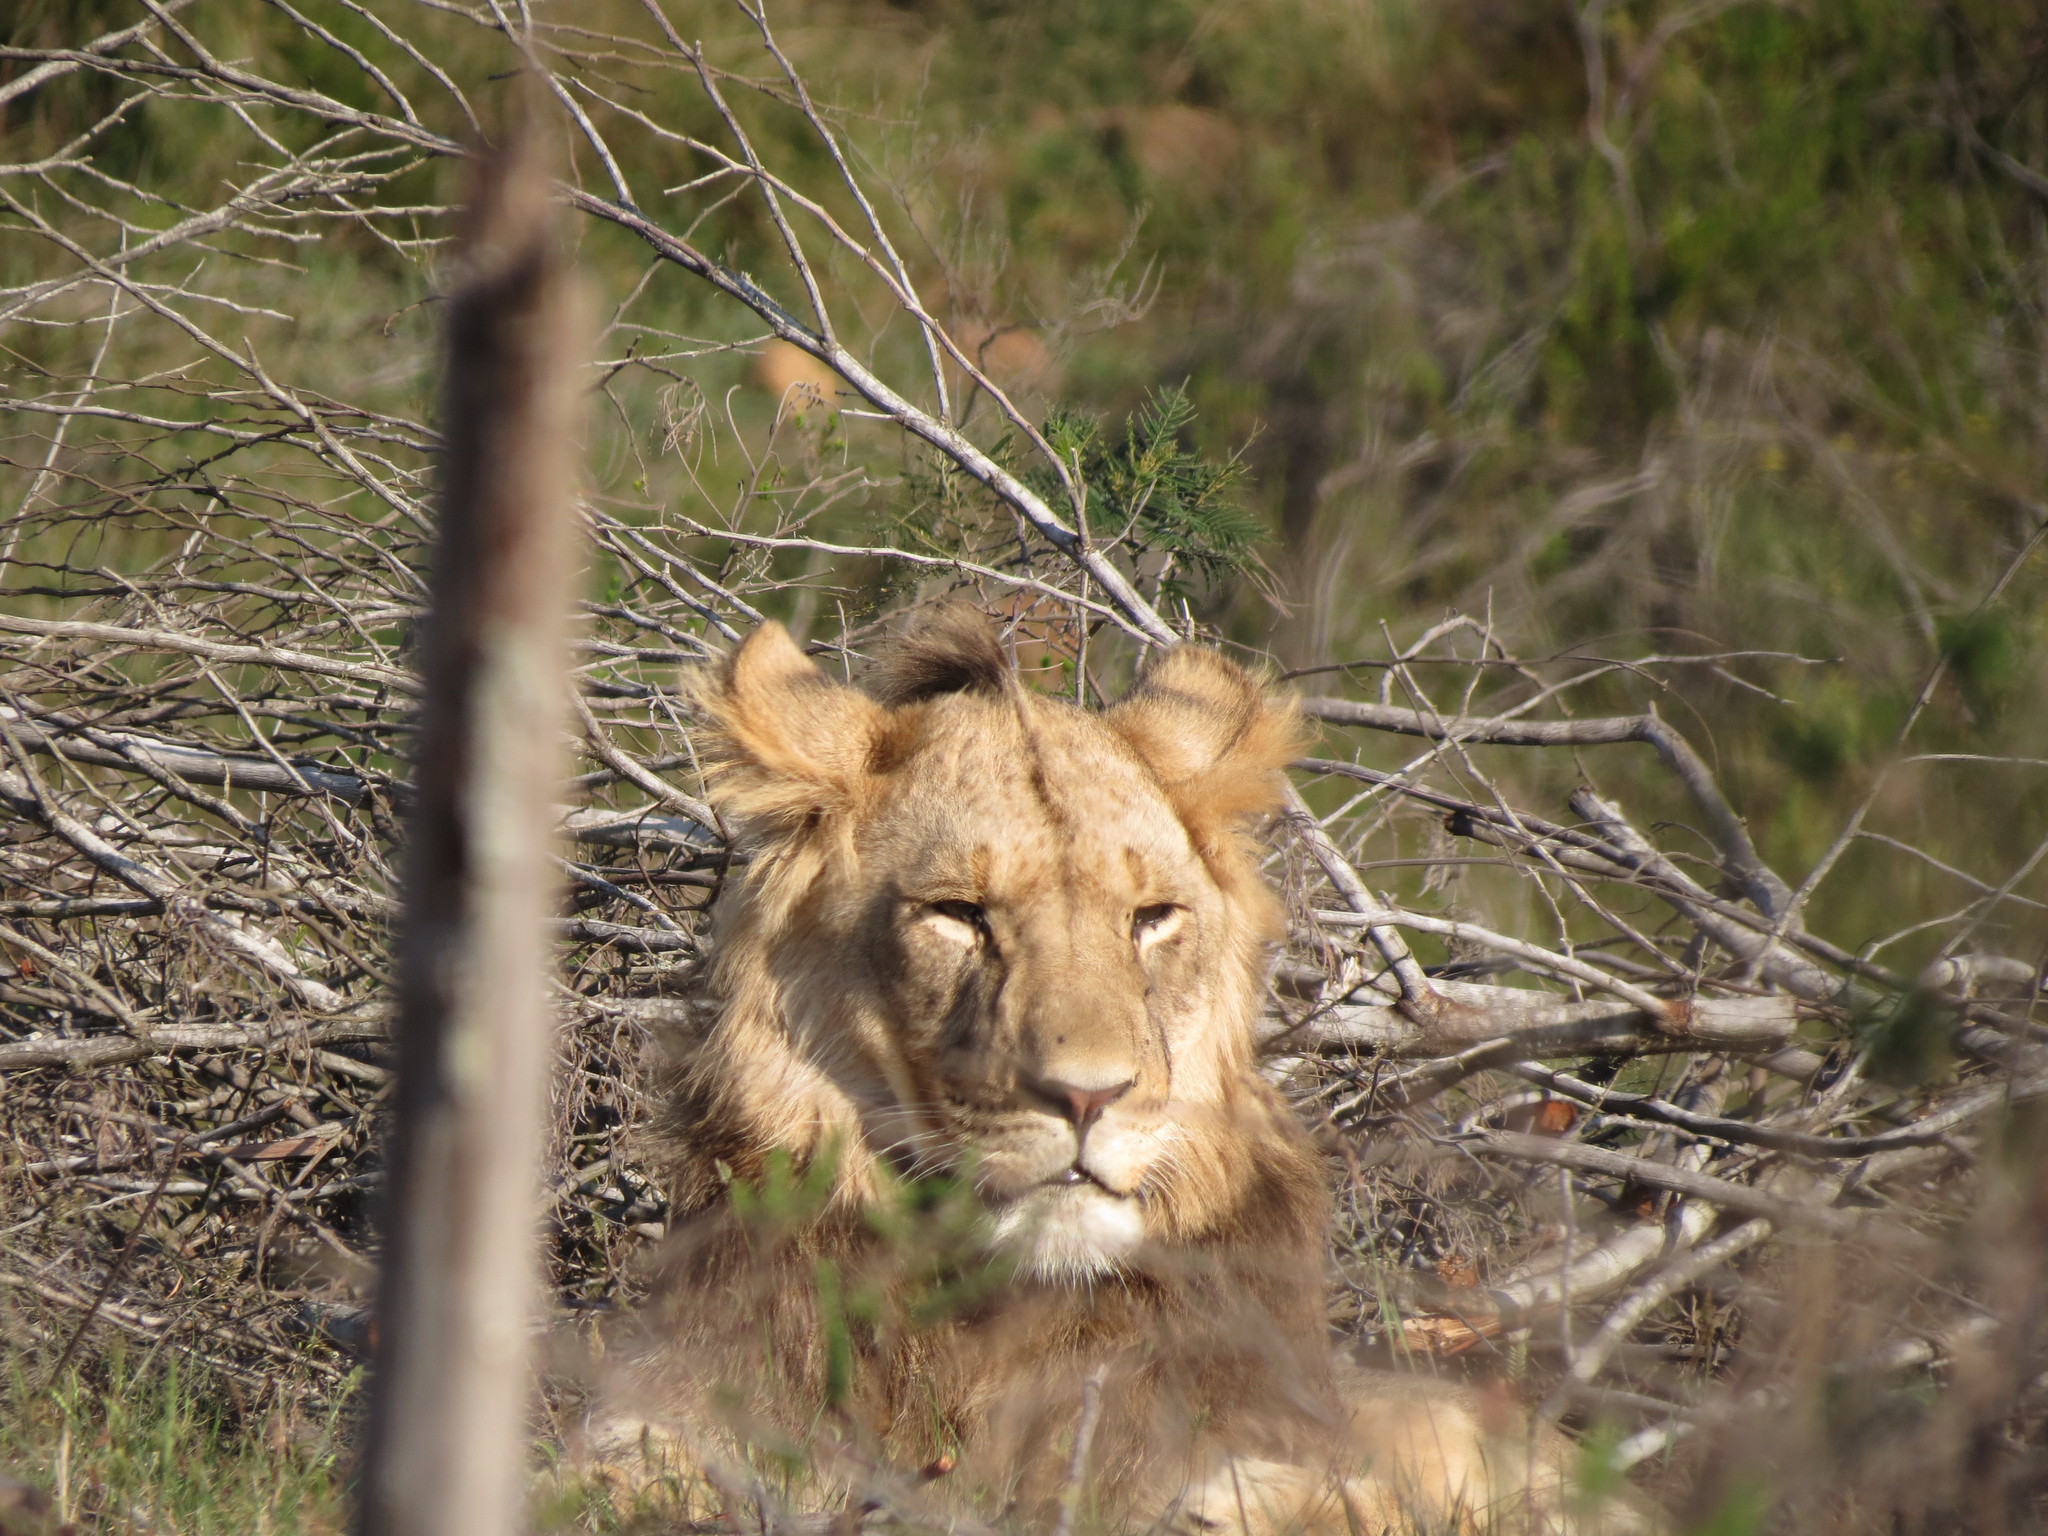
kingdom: Animalia
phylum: Chordata
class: Mammalia
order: Carnivora
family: Felidae
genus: Panthera
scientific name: Panthera leo
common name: Lion
